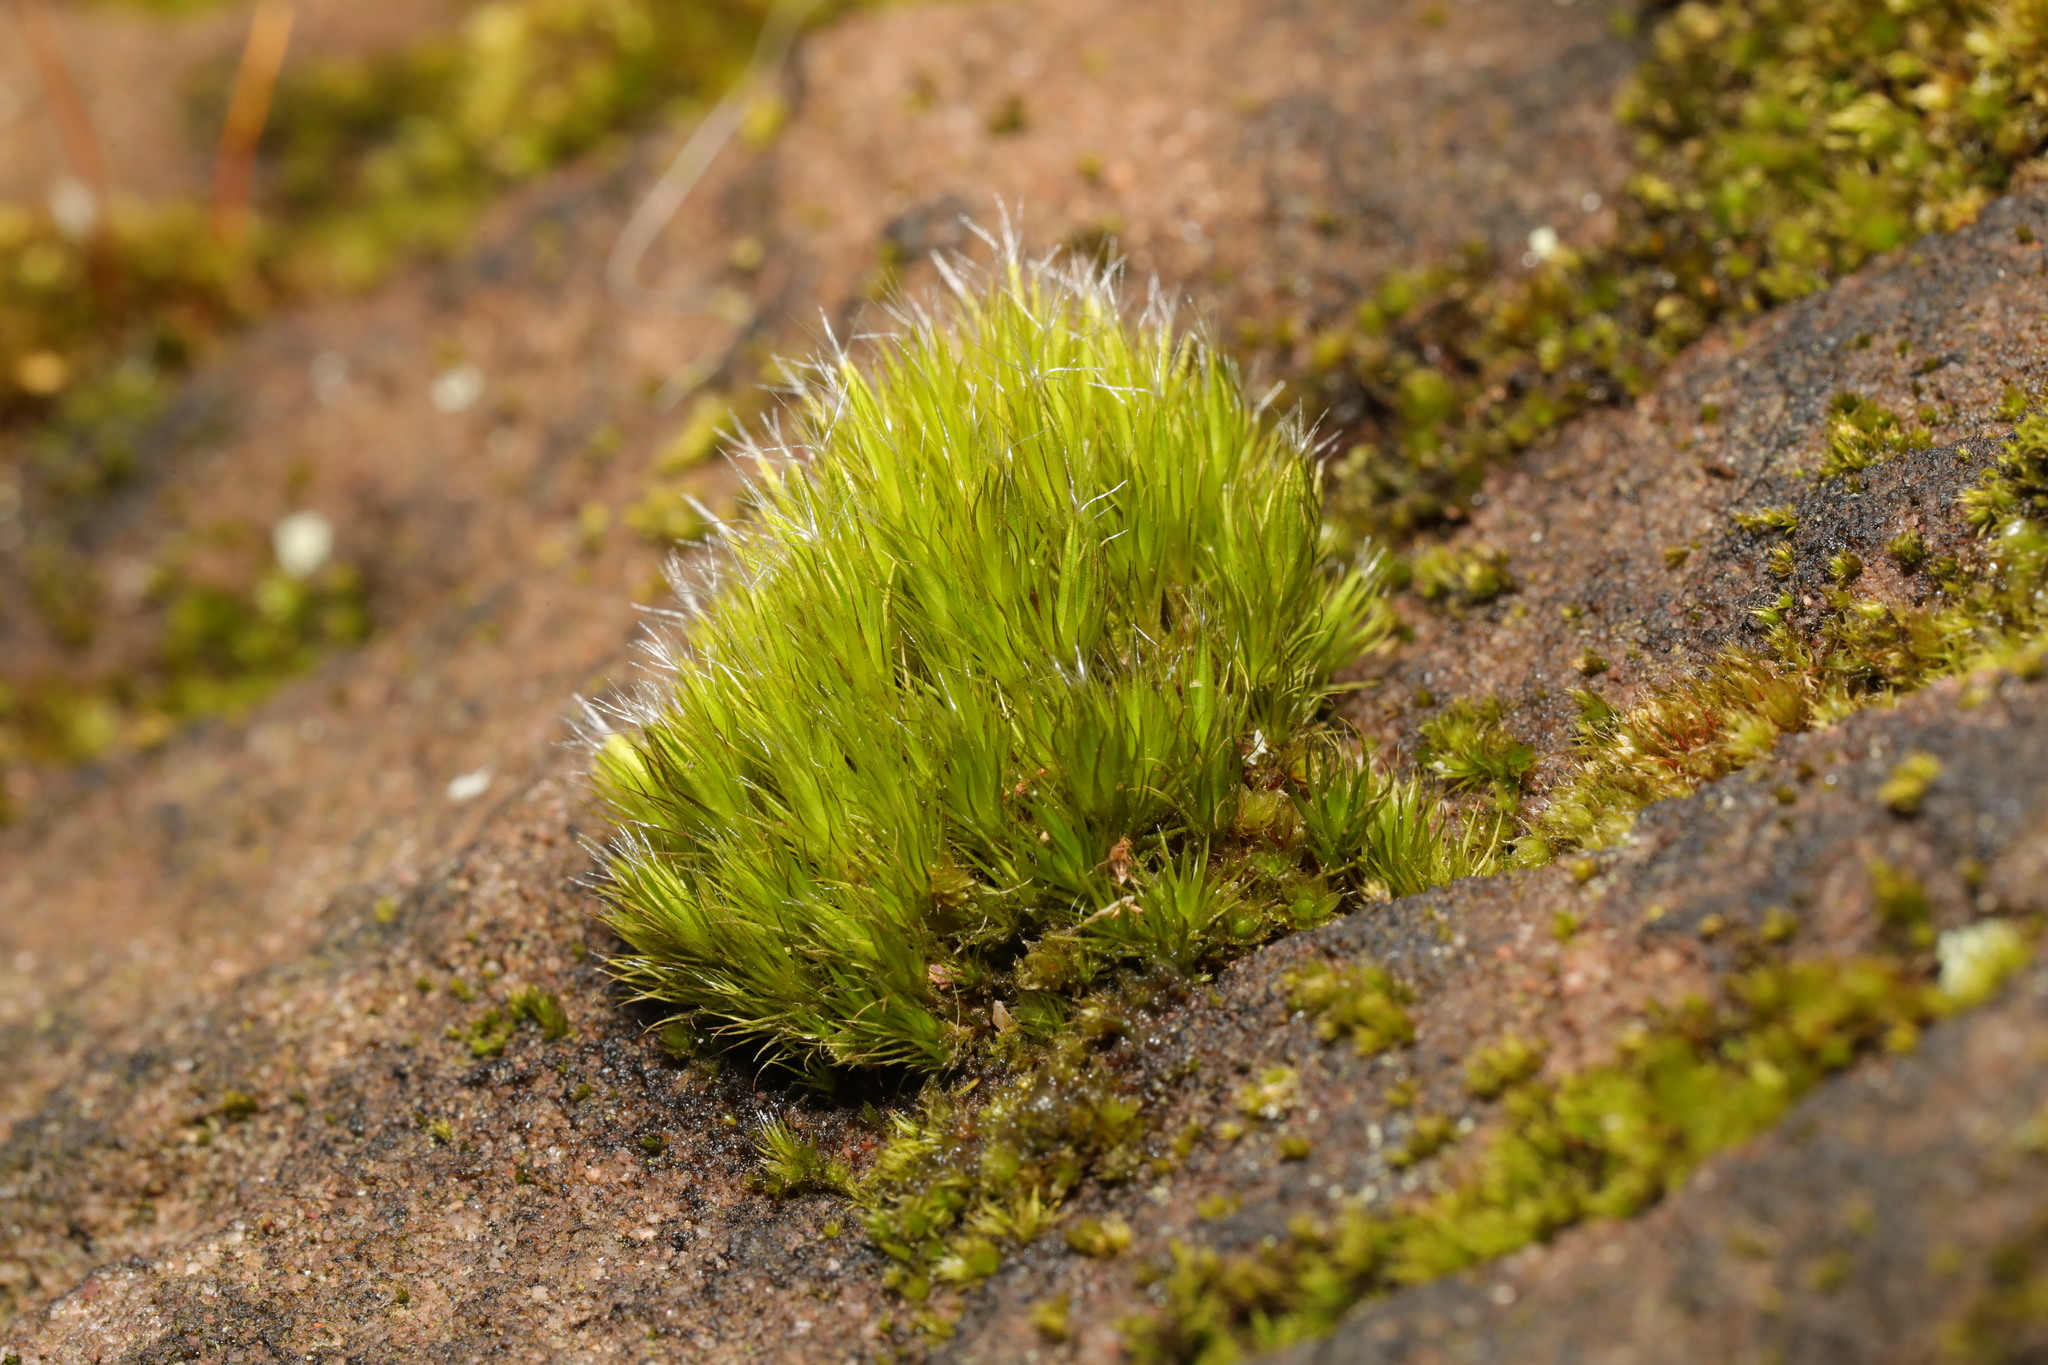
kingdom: Plantae
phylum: Bryophyta
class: Bryopsida
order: Dicranales
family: Leucobryaceae
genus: Campylopus
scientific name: Campylopus introflexus
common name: Heath star moss
